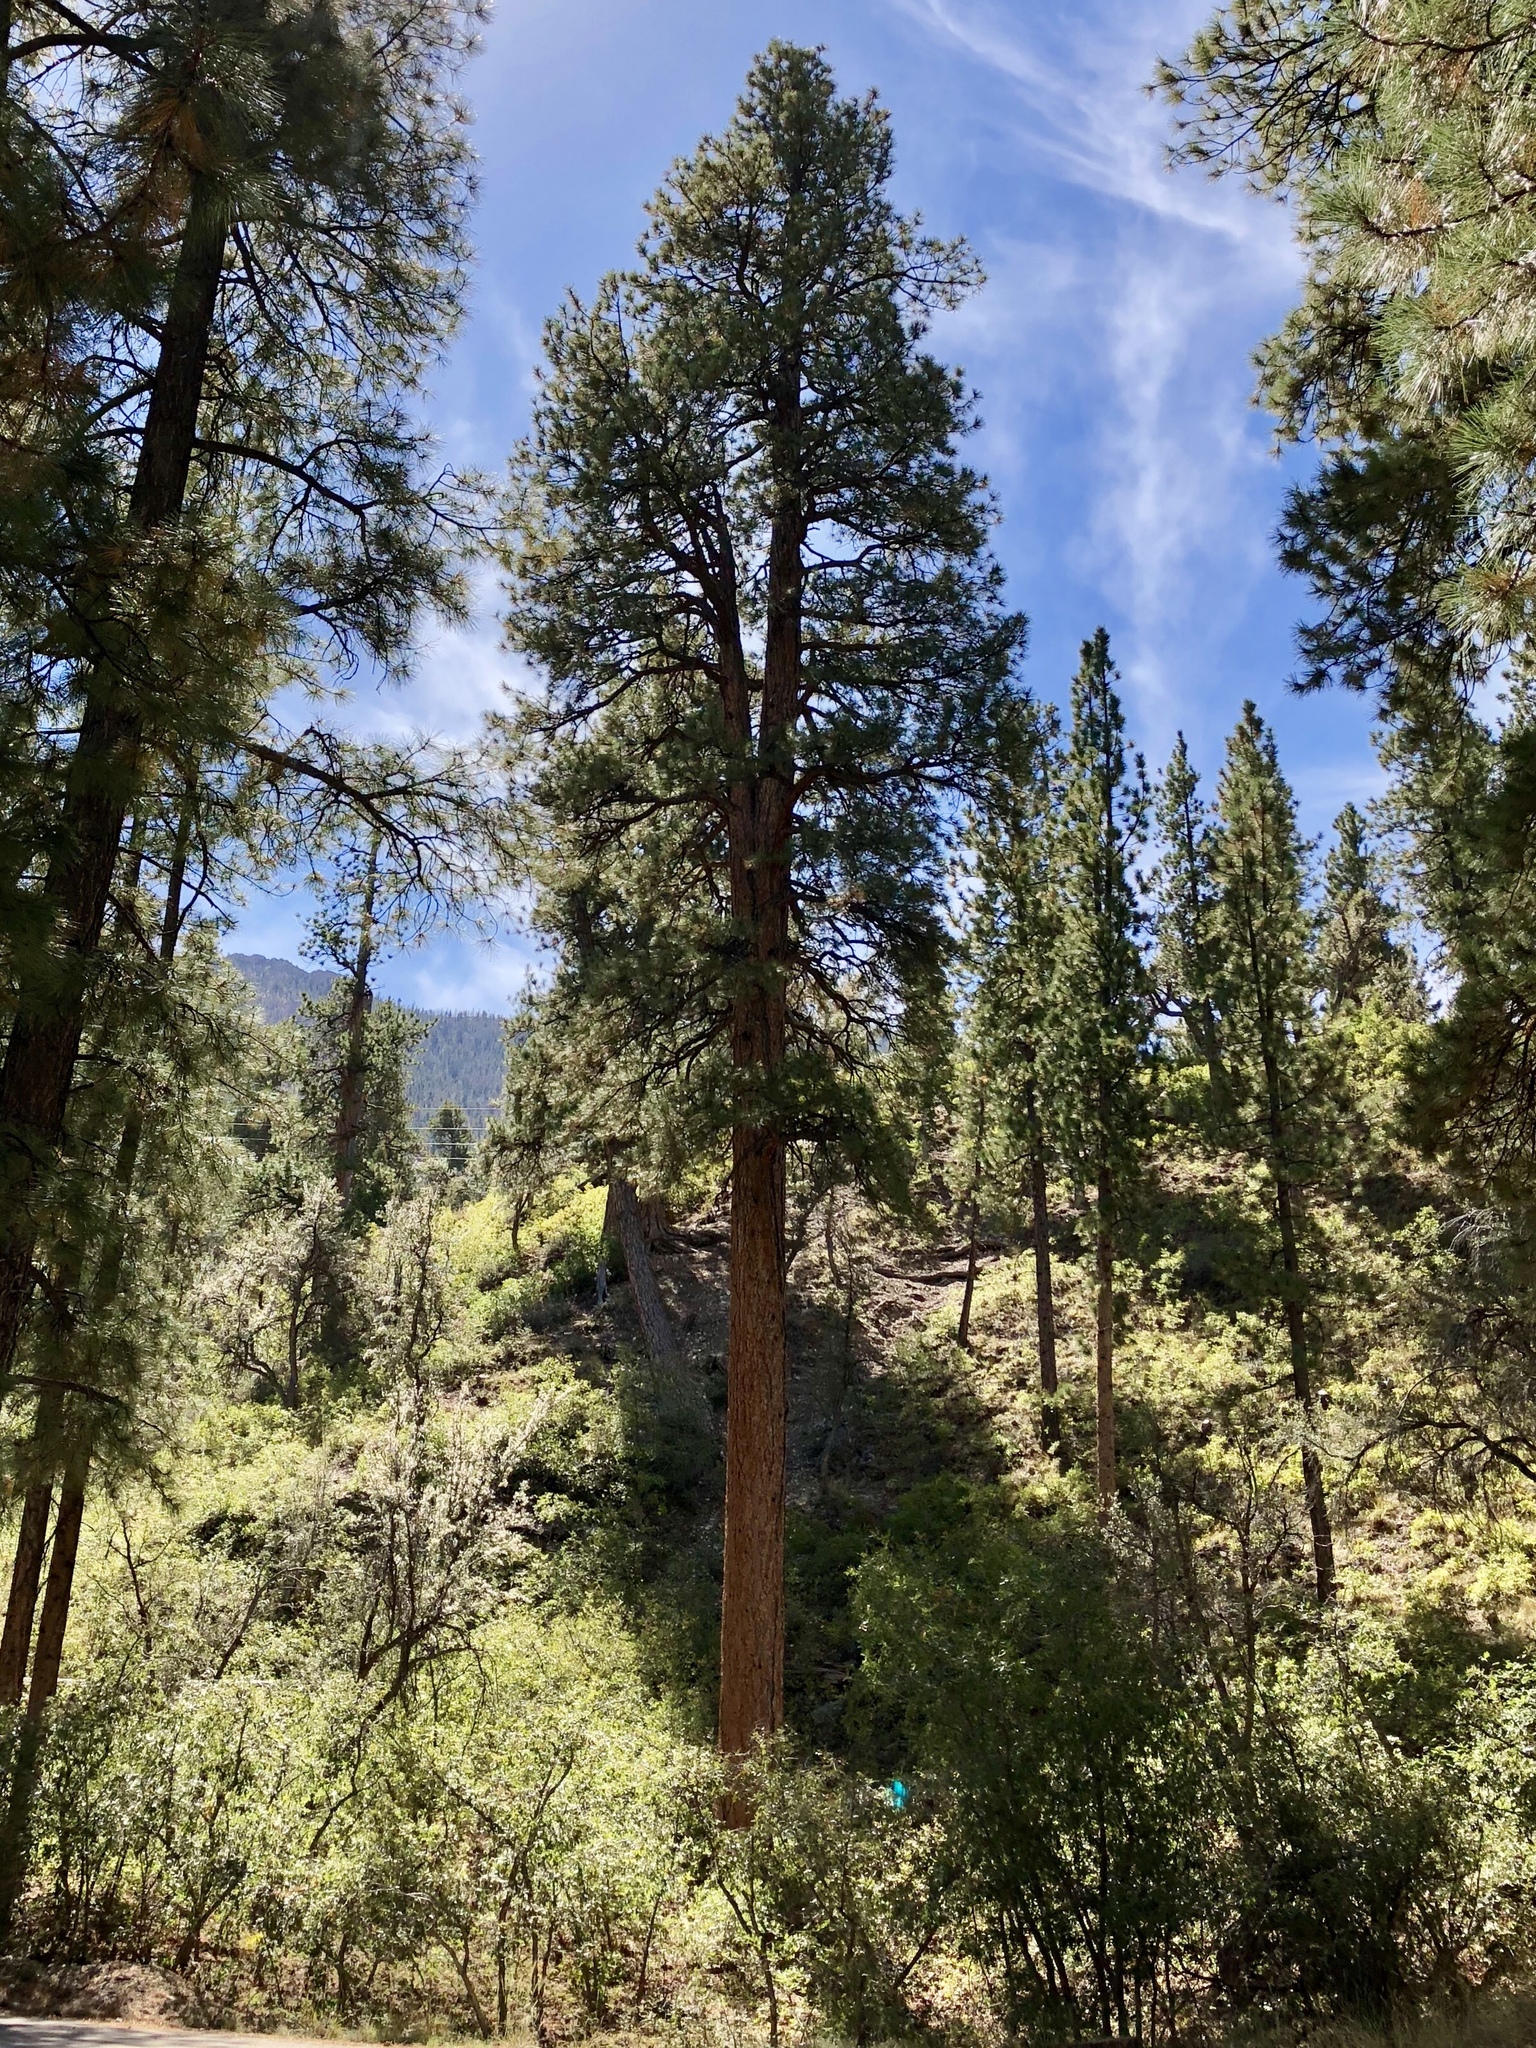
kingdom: Plantae
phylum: Tracheophyta
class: Pinopsida
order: Pinales
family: Pinaceae
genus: Pinus
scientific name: Pinus ponderosa
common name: Western yellow-pine
